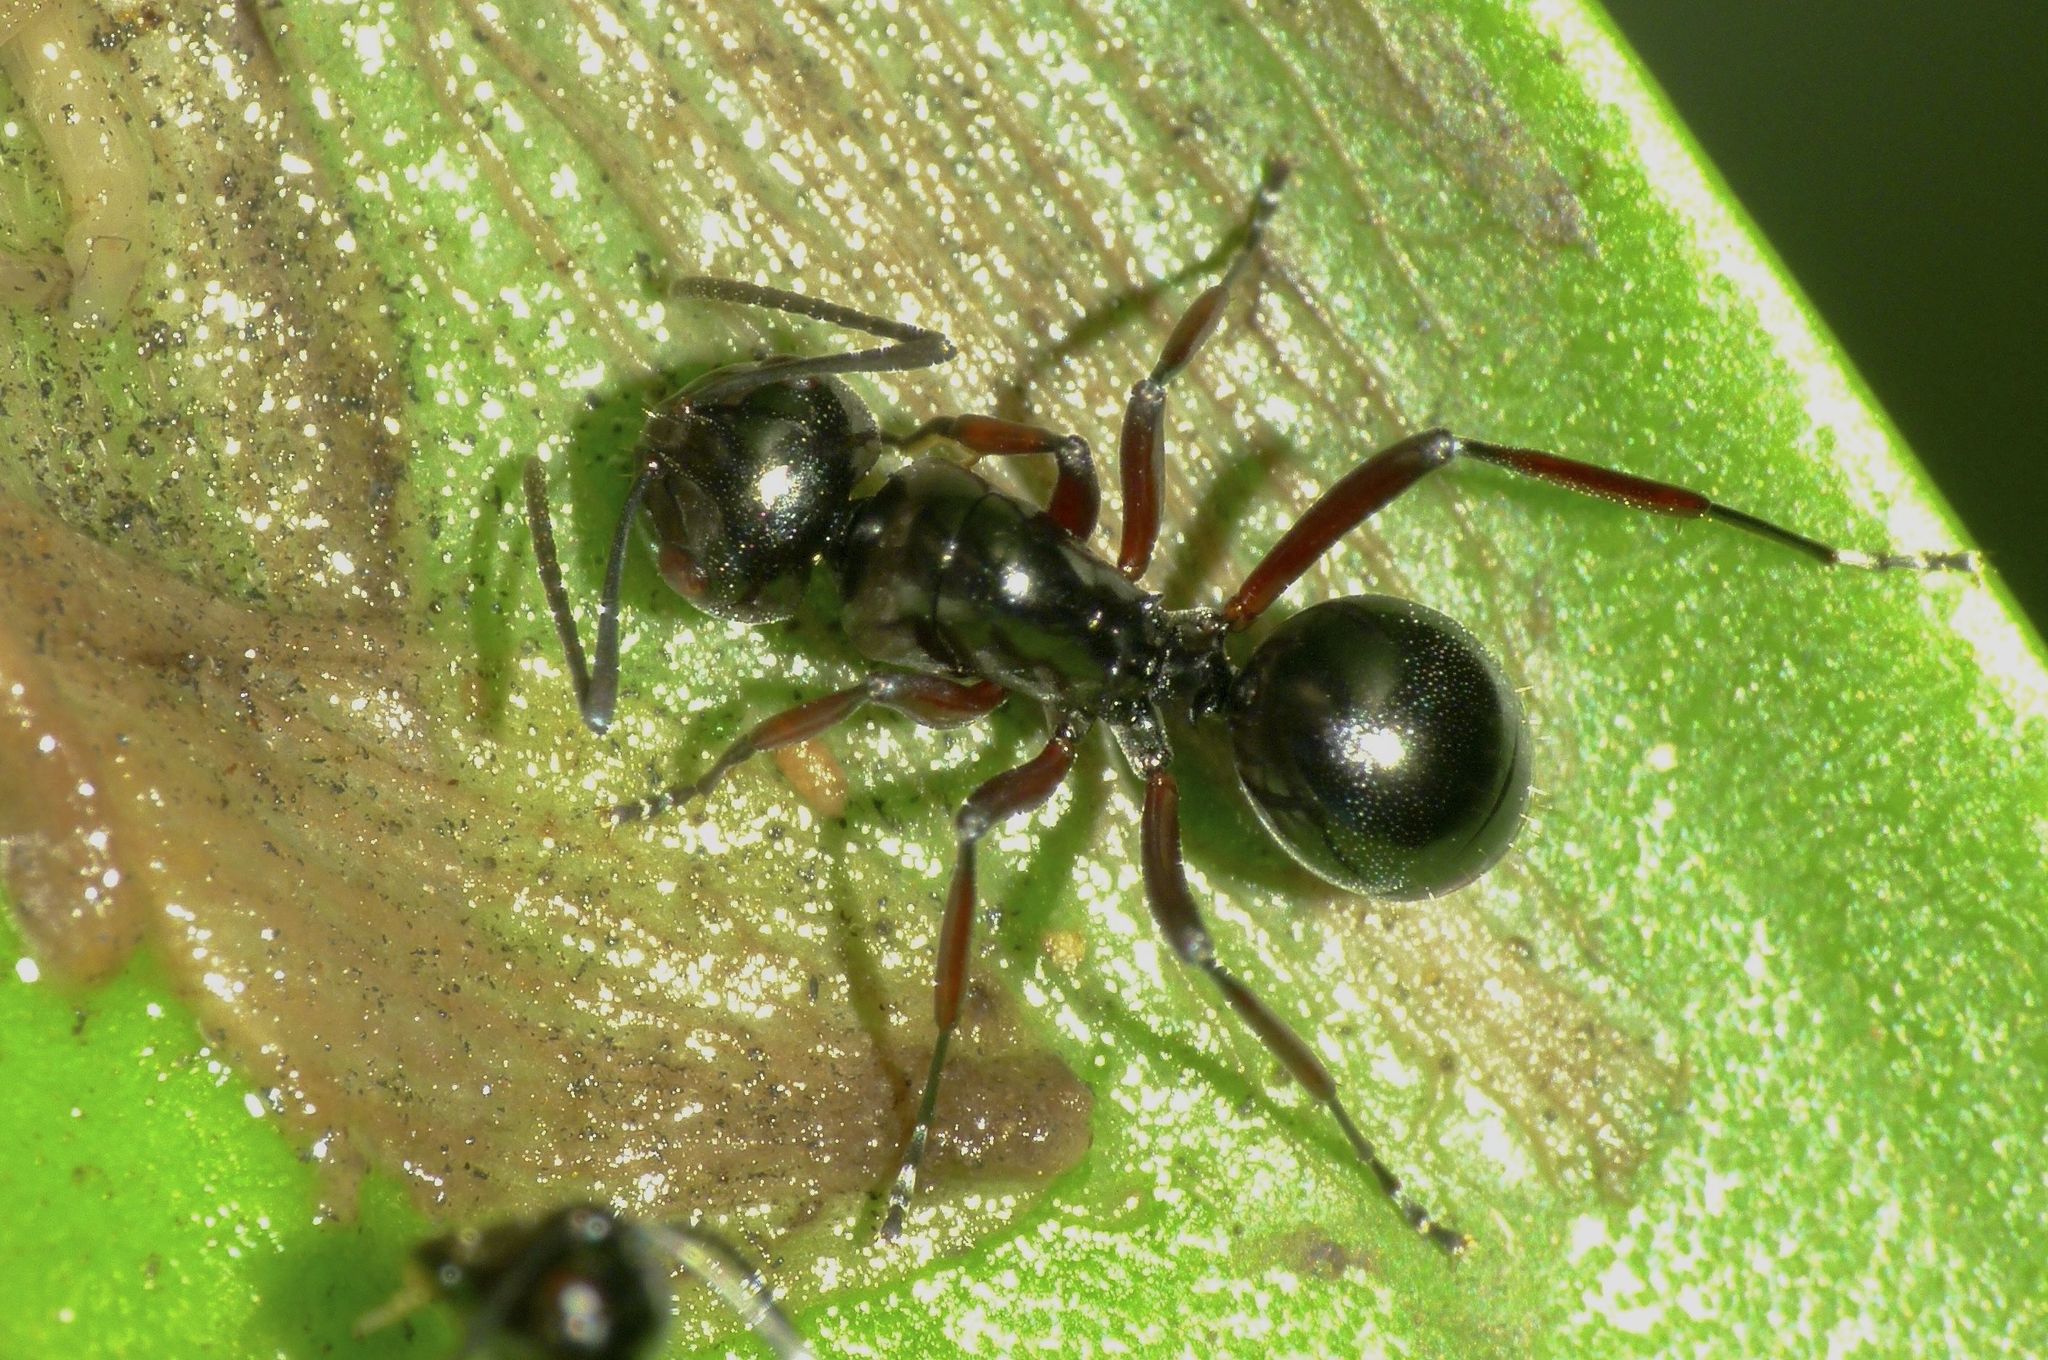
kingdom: Animalia
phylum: Arthropoda
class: Insecta
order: Hymenoptera
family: Formicidae
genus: Polyrhachis
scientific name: Polyrhachis australis
